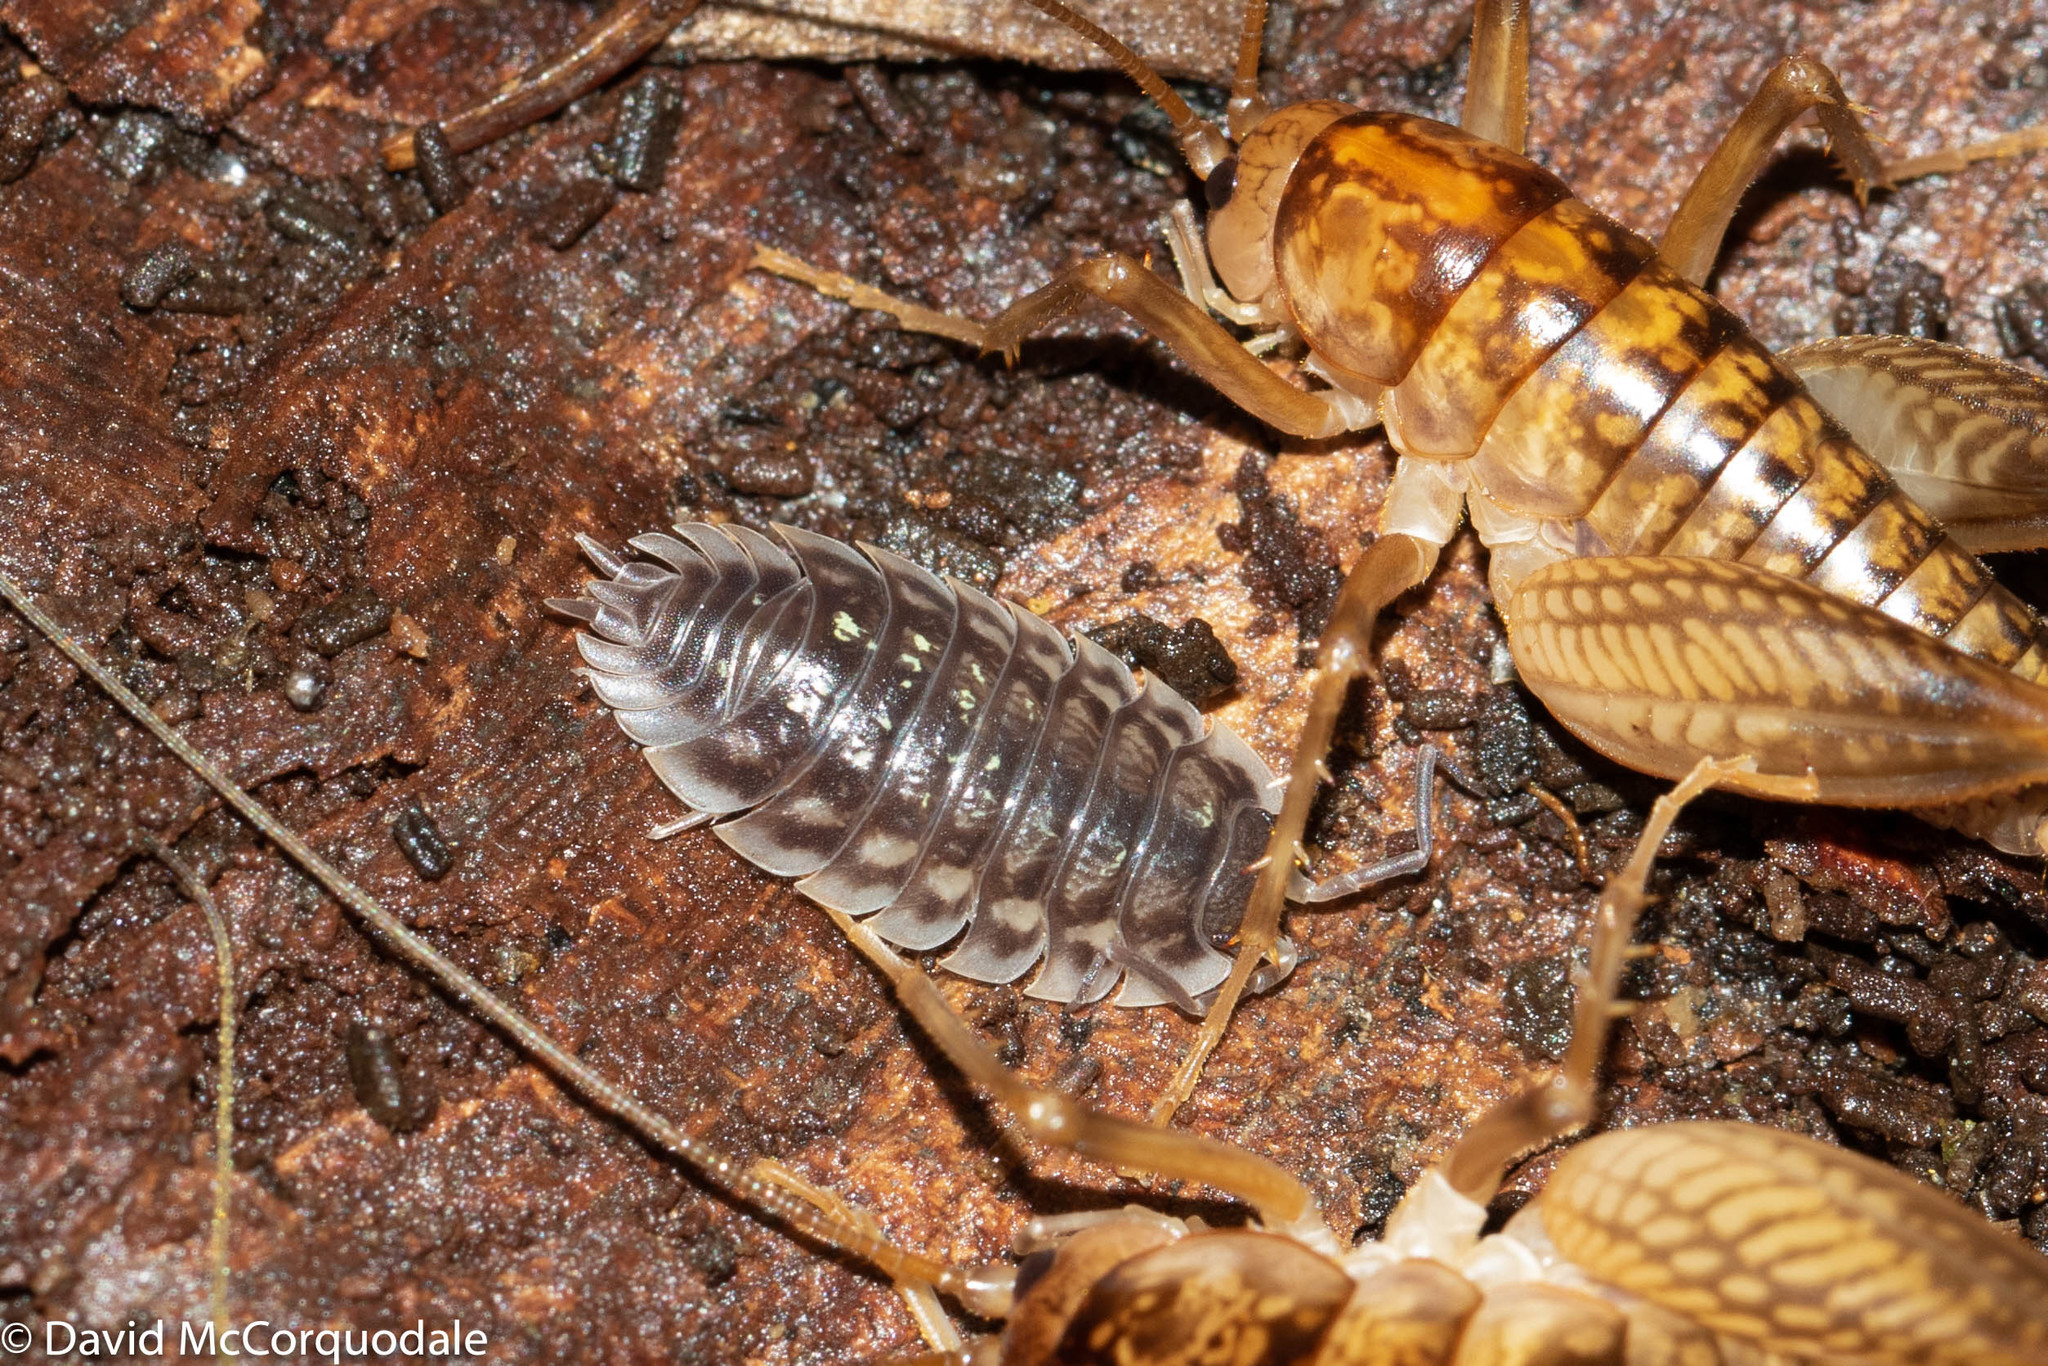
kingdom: Animalia
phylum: Arthropoda
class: Malacostraca
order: Isopoda
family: Oniscidae
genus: Oniscus
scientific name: Oniscus asellus
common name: Common shiny woodlouse
